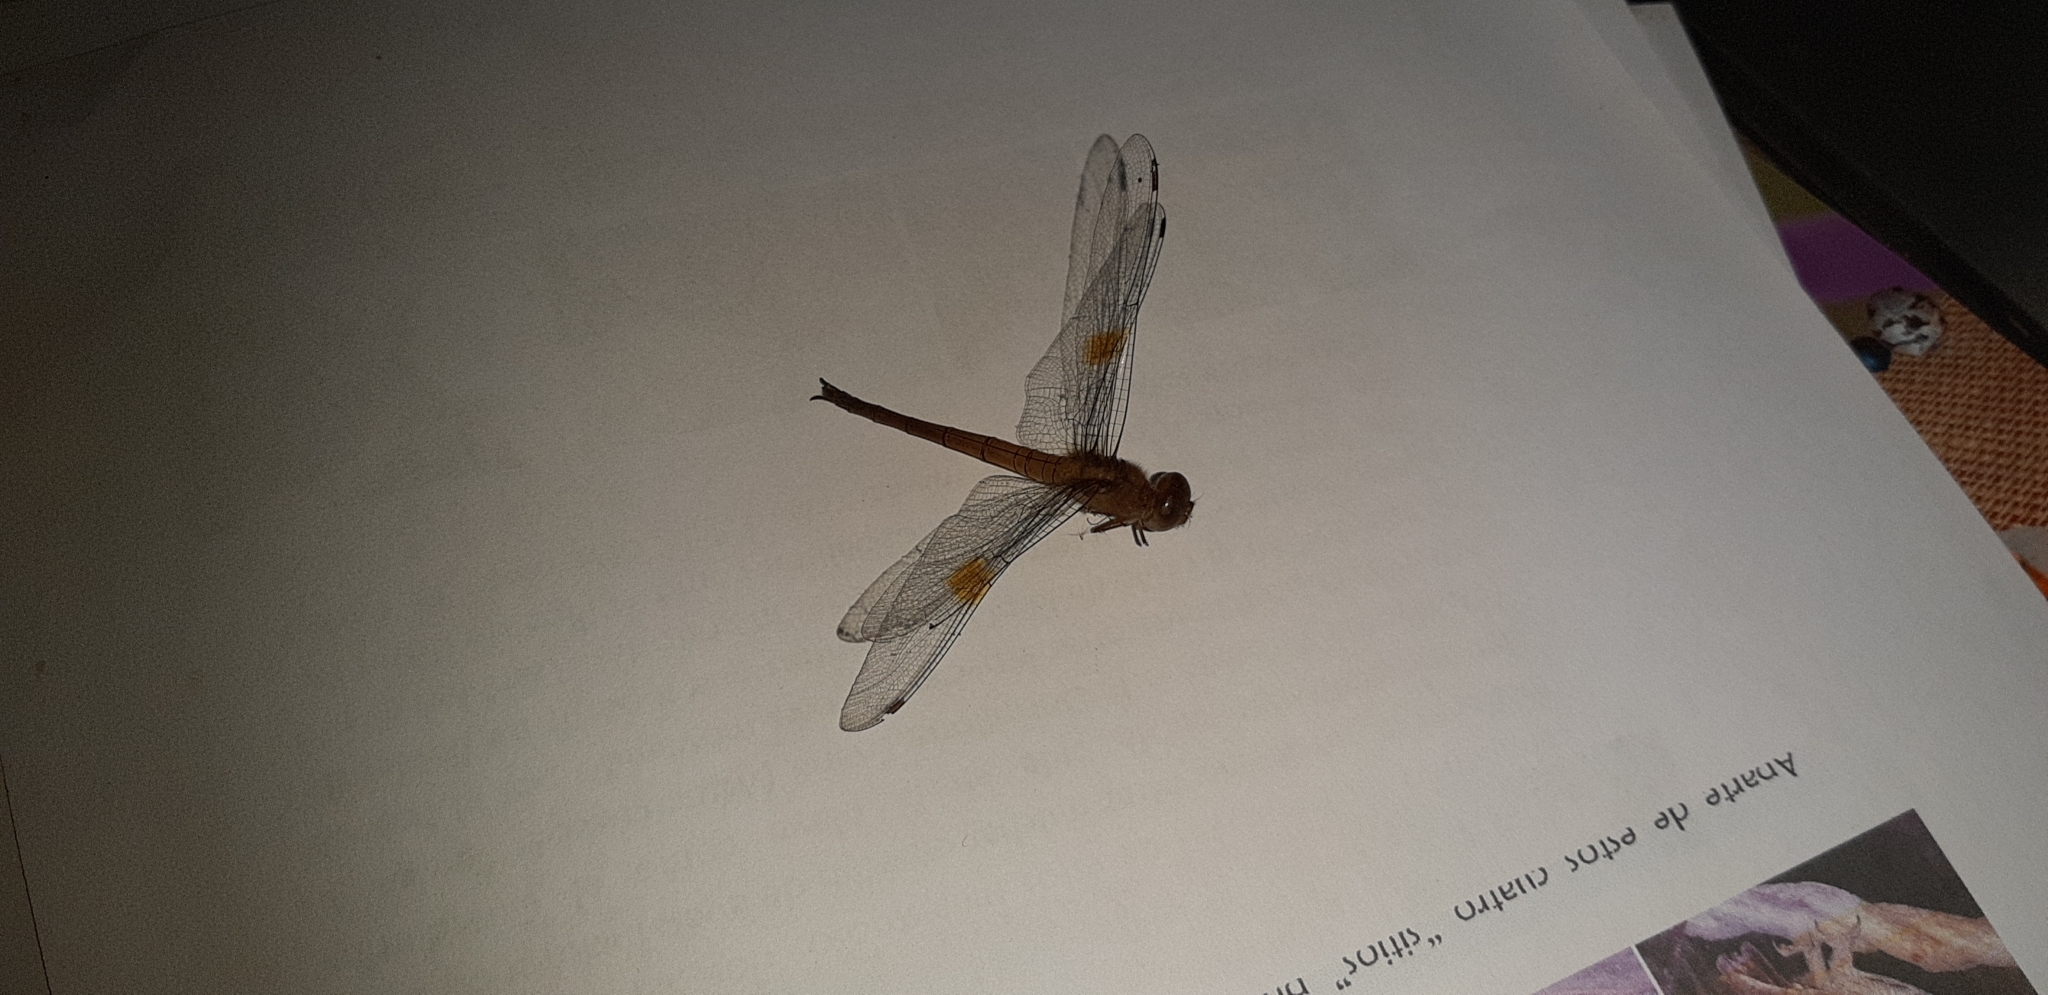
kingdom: Animalia
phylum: Arthropoda
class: Insecta
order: Odonata
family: Libellulidae
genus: Tholymis
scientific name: Tholymis citrina
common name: Evening skimmer
